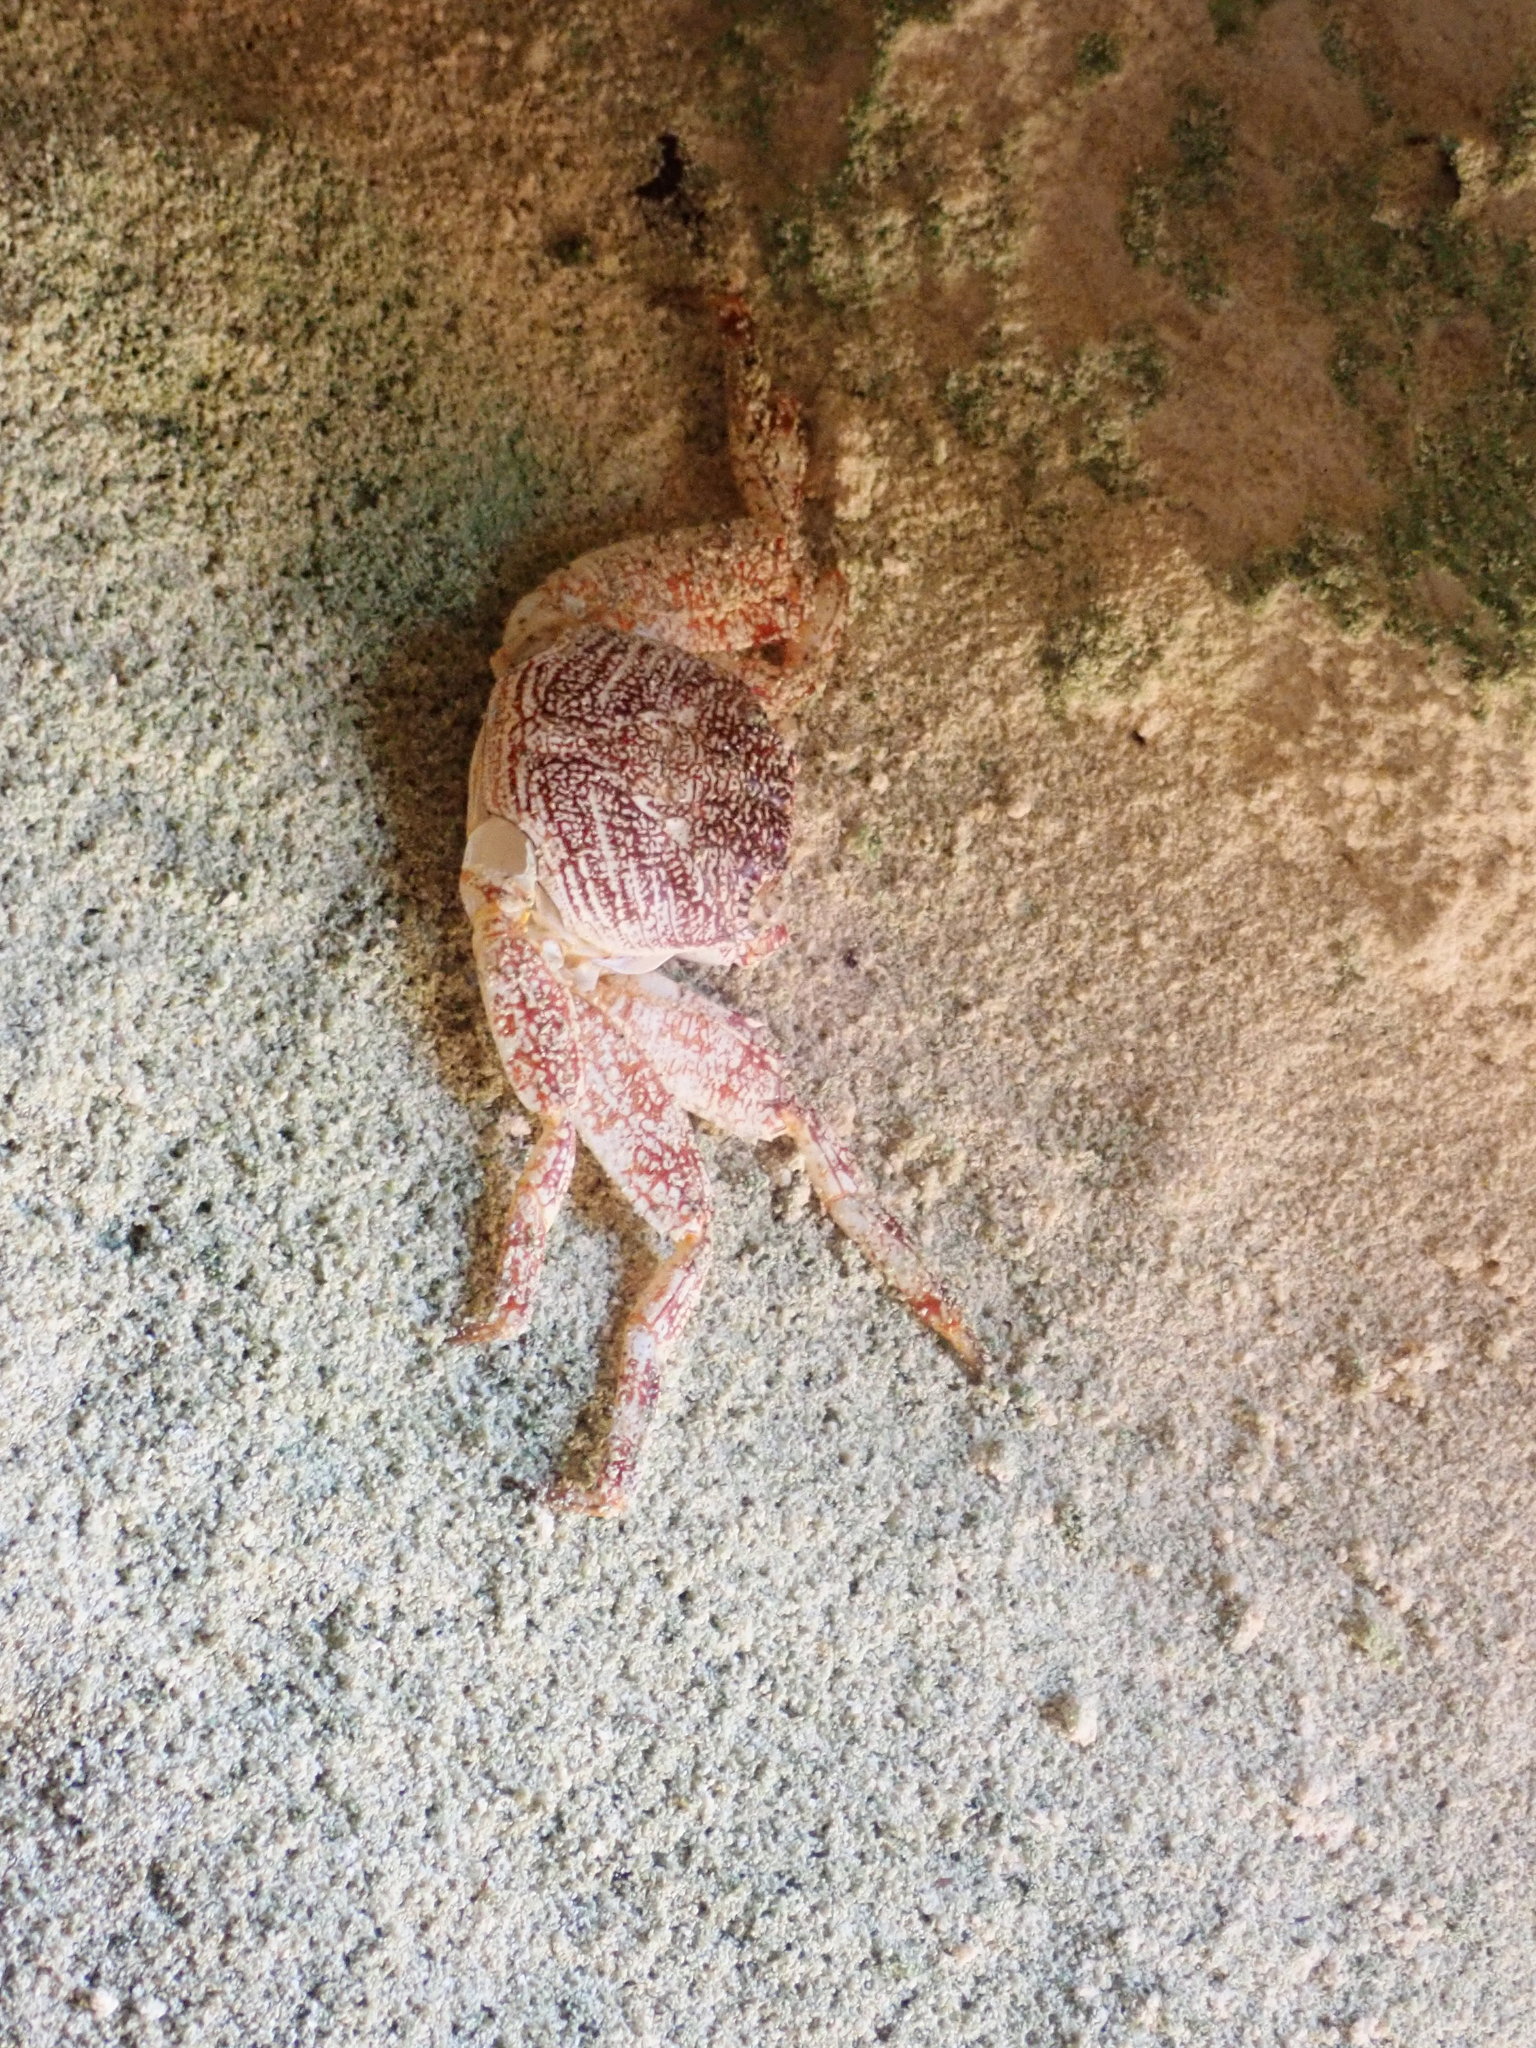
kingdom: Animalia
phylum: Arthropoda
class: Malacostraca
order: Decapoda
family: Grapsidae
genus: Grapsus
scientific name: Grapsus grapsus
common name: Sally lightfoot
